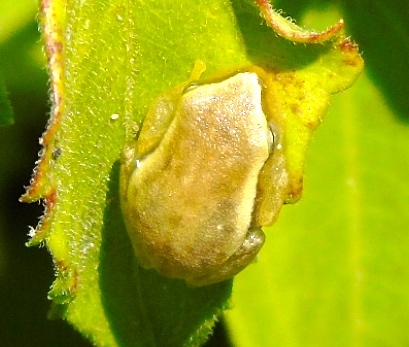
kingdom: Animalia
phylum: Chordata
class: Amphibia
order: Anura
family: Hylidae
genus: Tlalocohyla
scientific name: Tlalocohyla smithii
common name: Dwarf mexican treefrog
